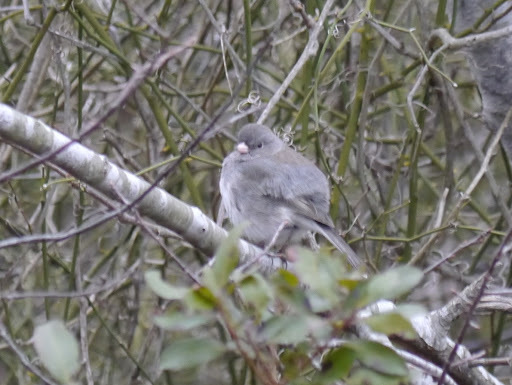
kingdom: Animalia
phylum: Chordata
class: Aves
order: Passeriformes
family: Passerellidae
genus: Junco
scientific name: Junco hyemalis
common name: Dark-eyed junco
